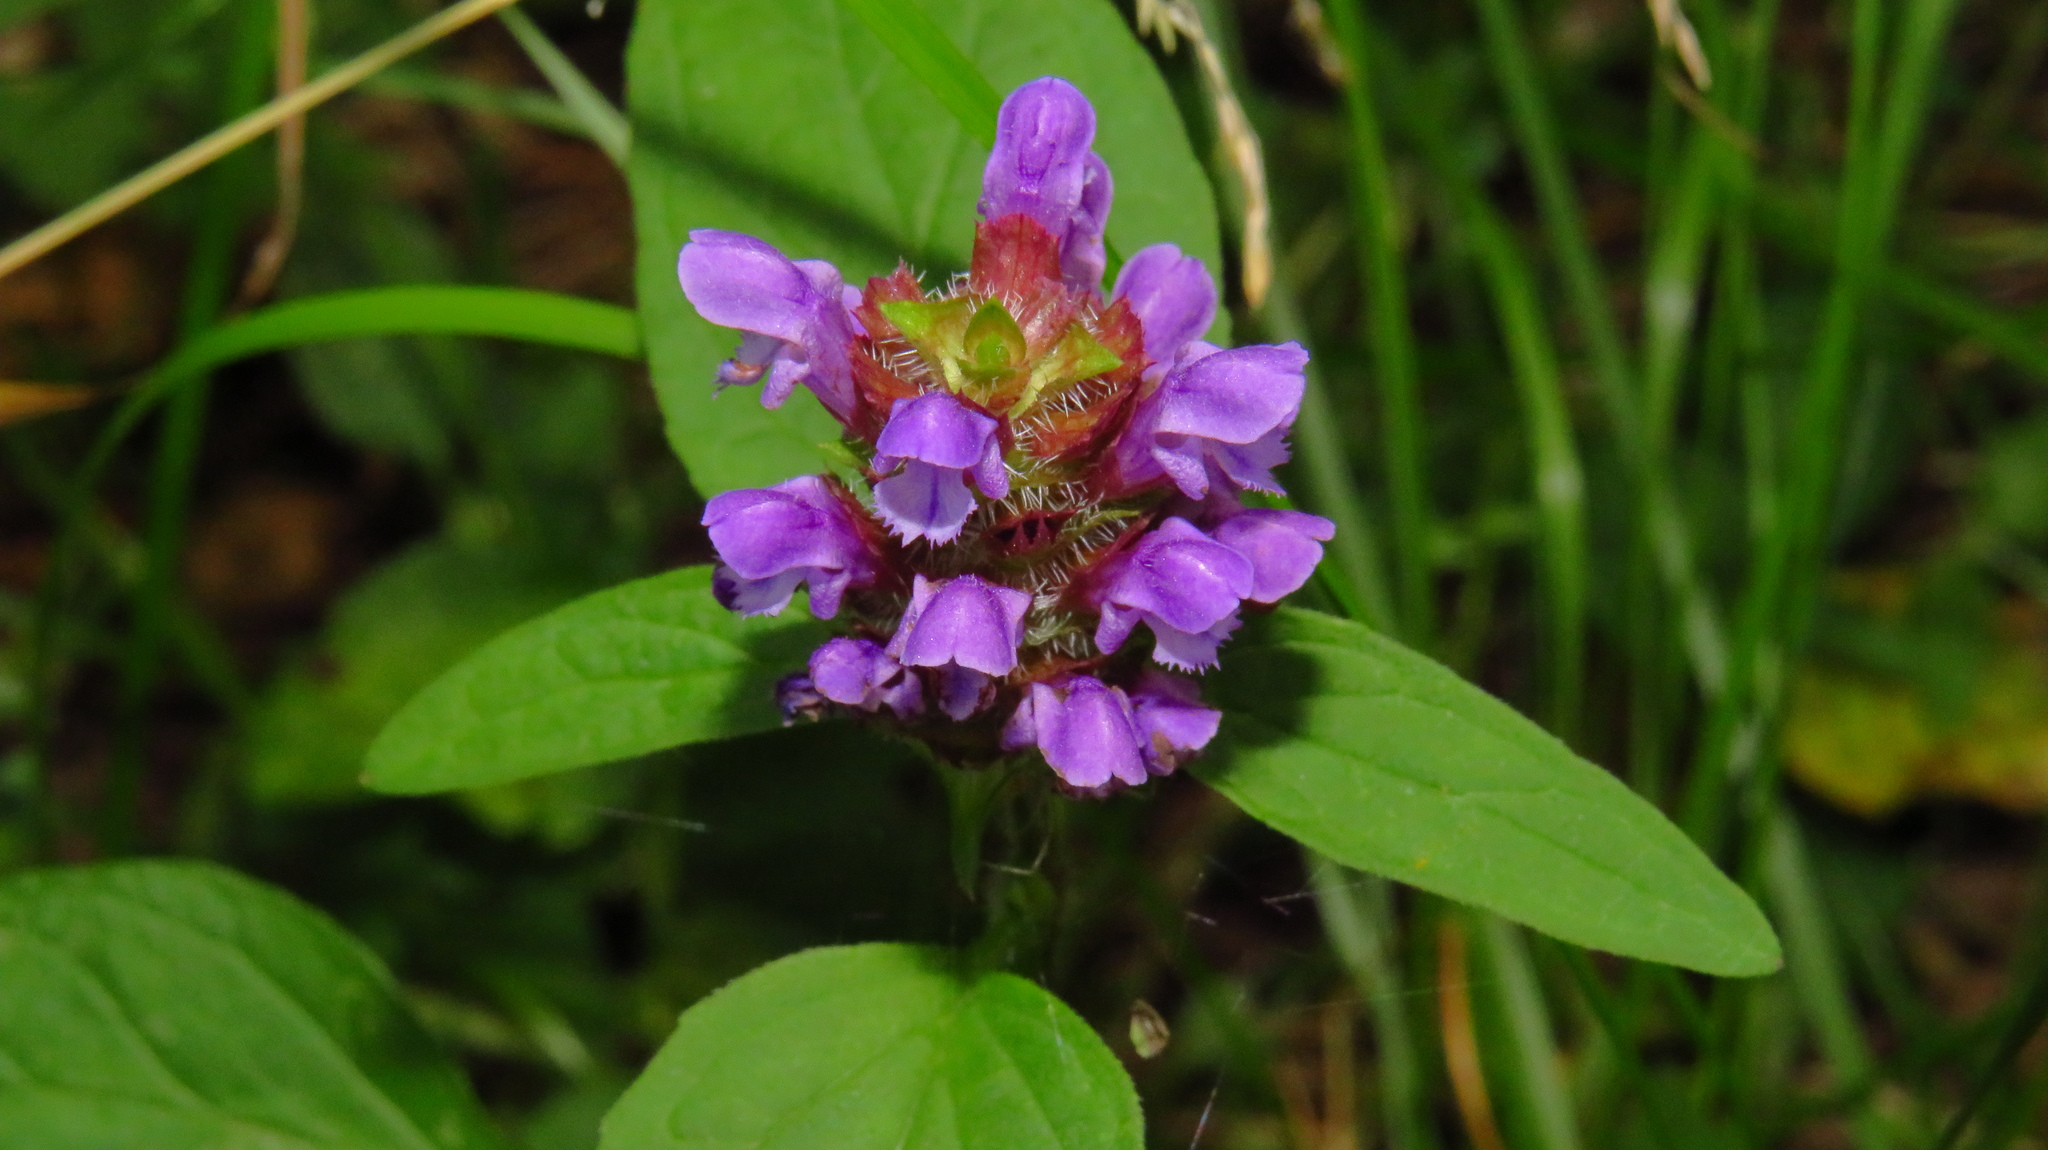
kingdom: Plantae
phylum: Tracheophyta
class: Magnoliopsida
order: Lamiales
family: Lamiaceae
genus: Prunella
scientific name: Prunella vulgaris
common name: Heal-all
